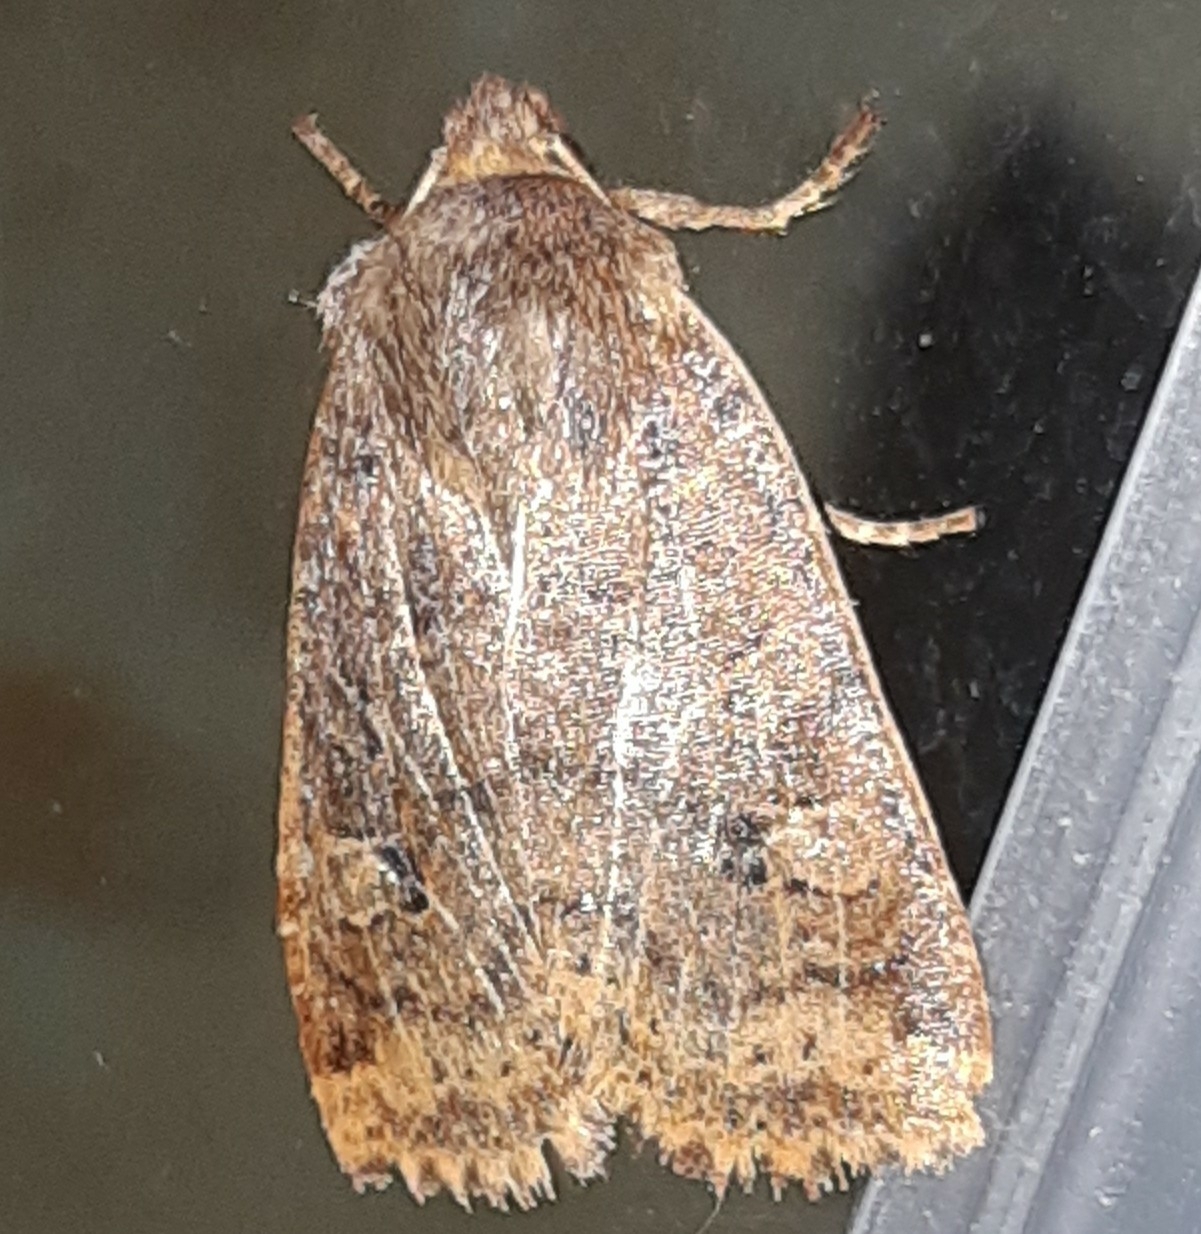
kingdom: Animalia
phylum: Arthropoda
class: Insecta
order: Lepidoptera
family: Noctuidae
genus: Conistra
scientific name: Conistra vaccinii
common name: Chestnut
